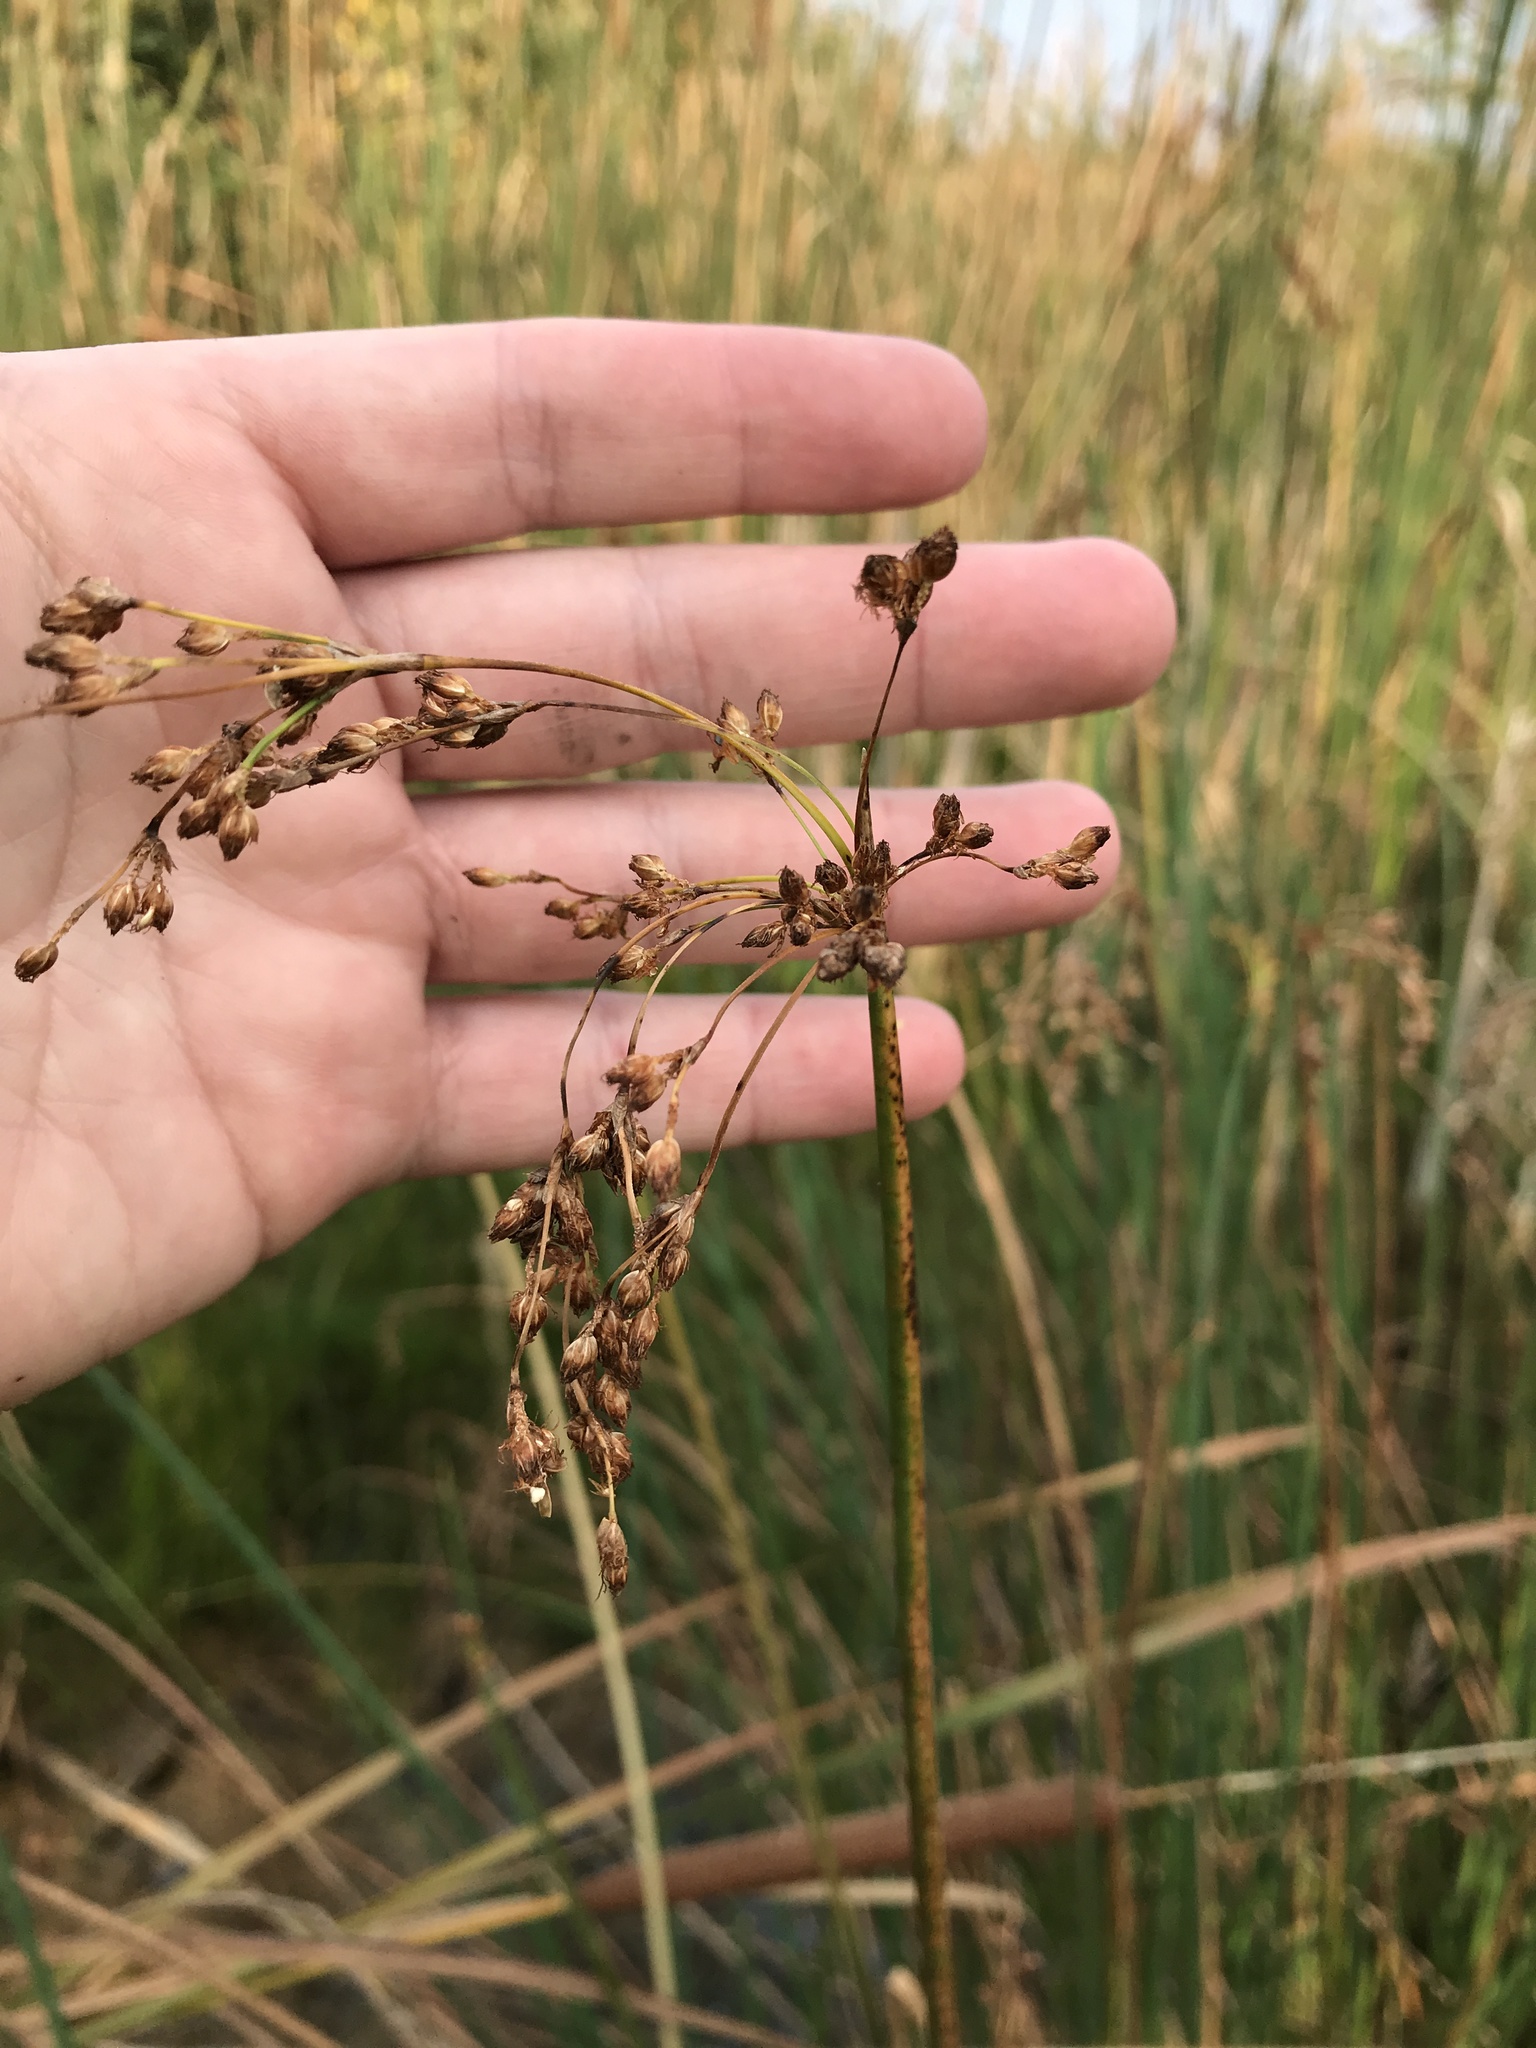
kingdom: Plantae
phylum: Tracheophyta
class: Liliopsida
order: Poales
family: Cyperaceae
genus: Schoenoplectus
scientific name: Schoenoplectus tabernaemontani
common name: Grey club-rush
